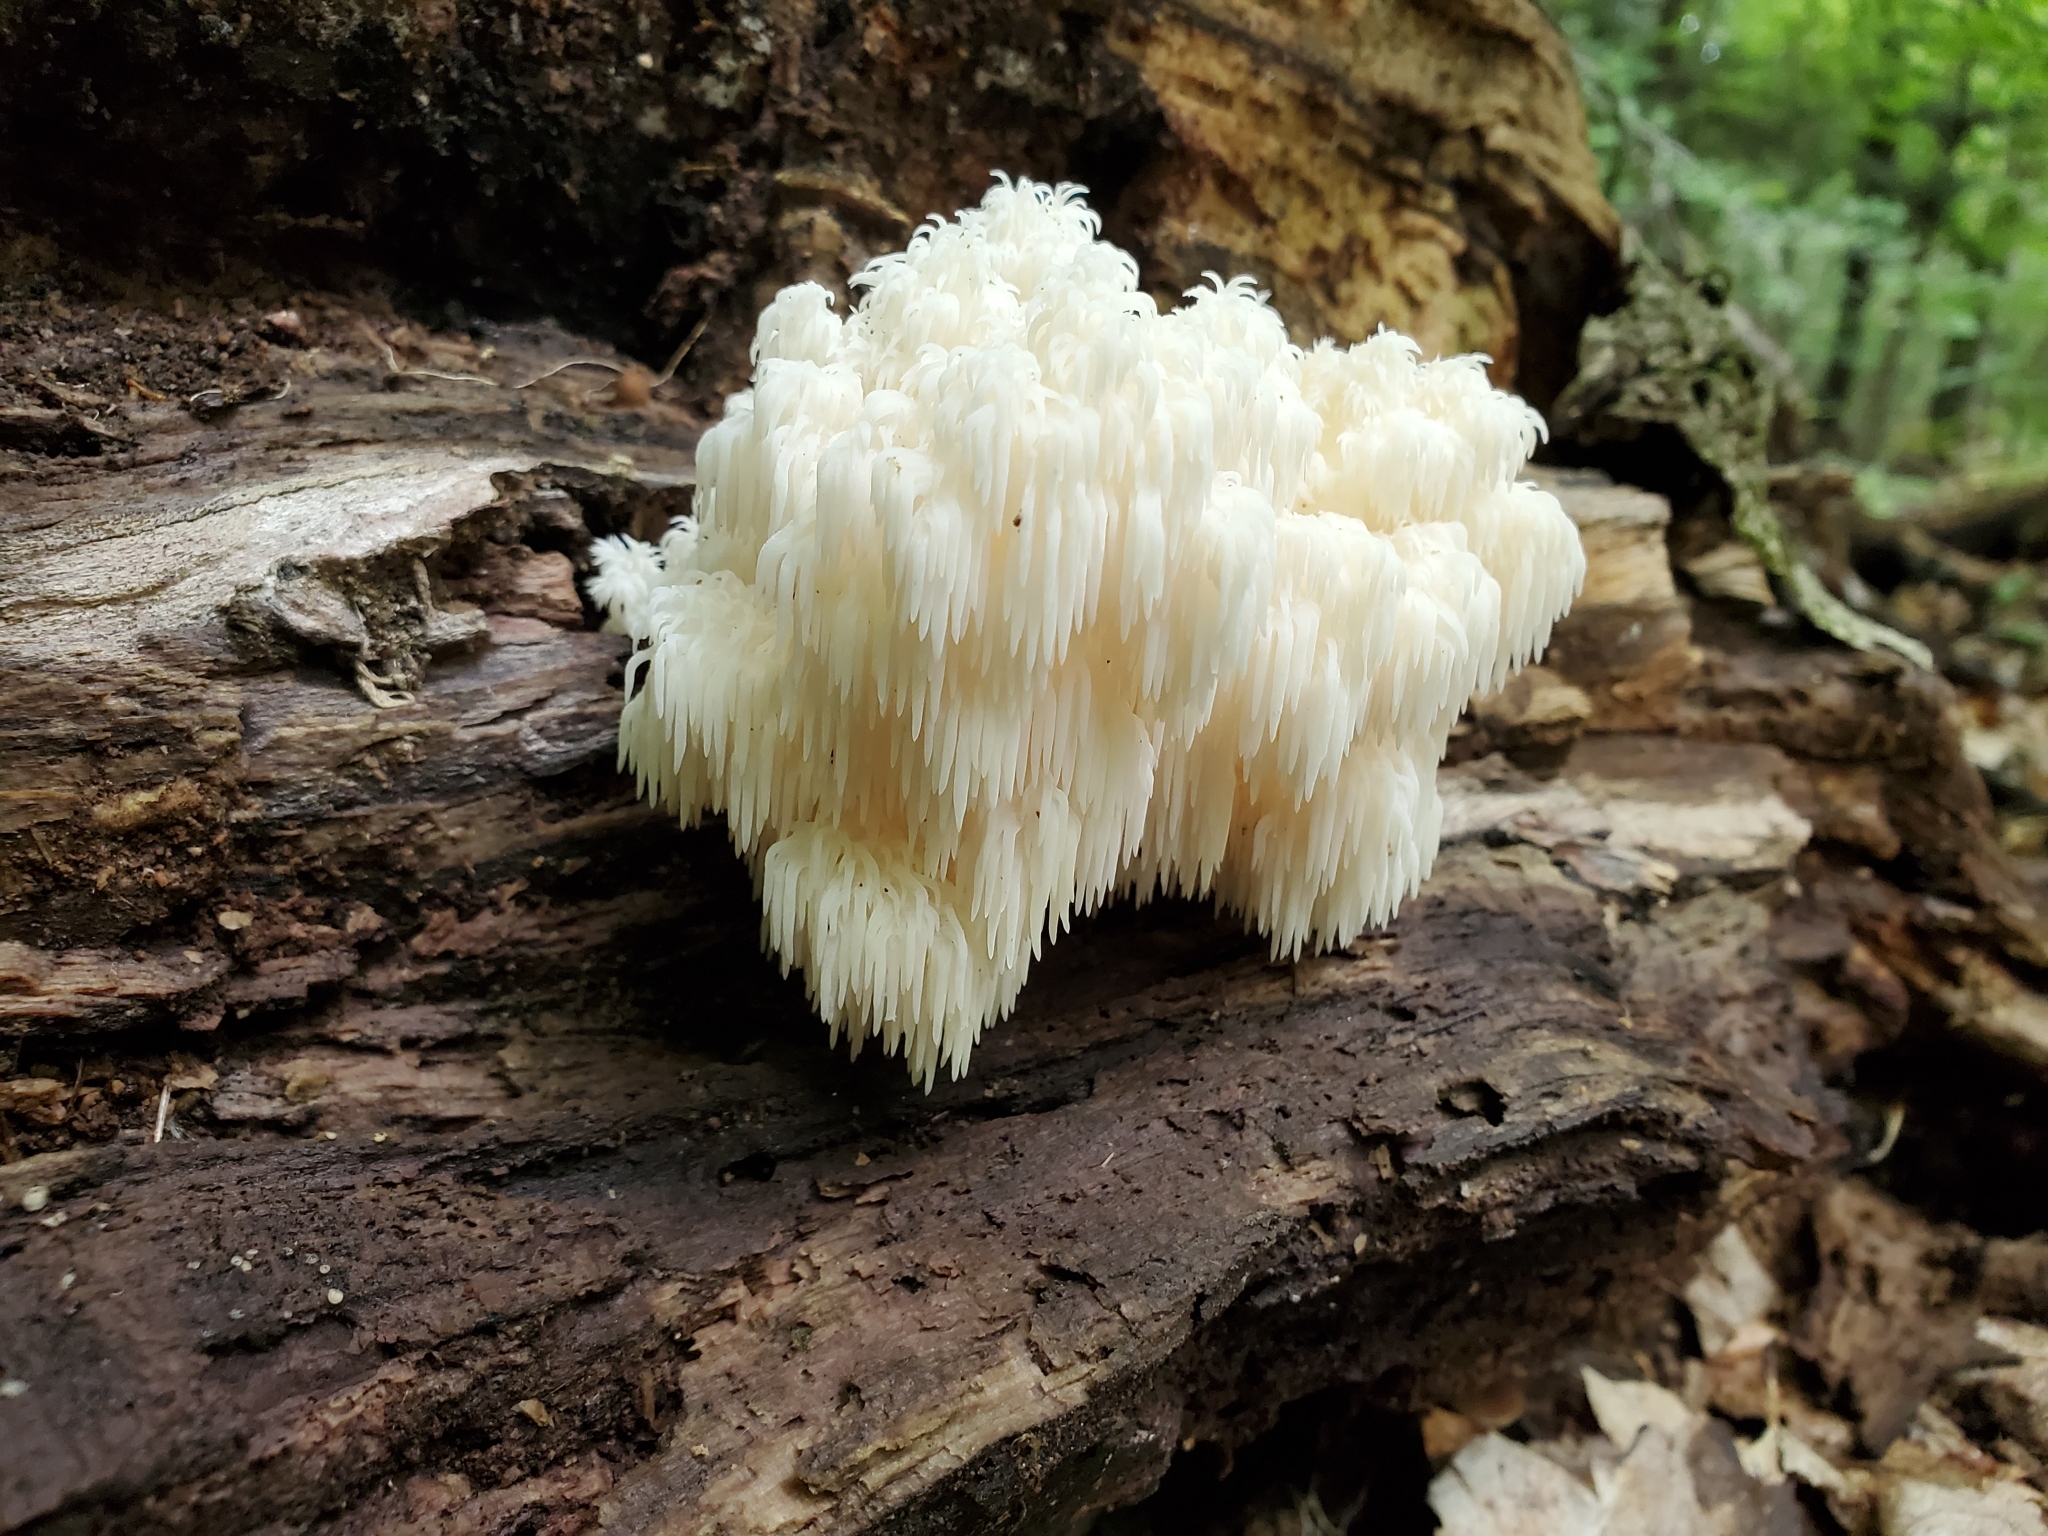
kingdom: Fungi
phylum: Basidiomycota
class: Agaricomycetes
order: Russulales
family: Hericiaceae
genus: Hericium
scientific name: Hericium americanum
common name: Bear's head tooth
